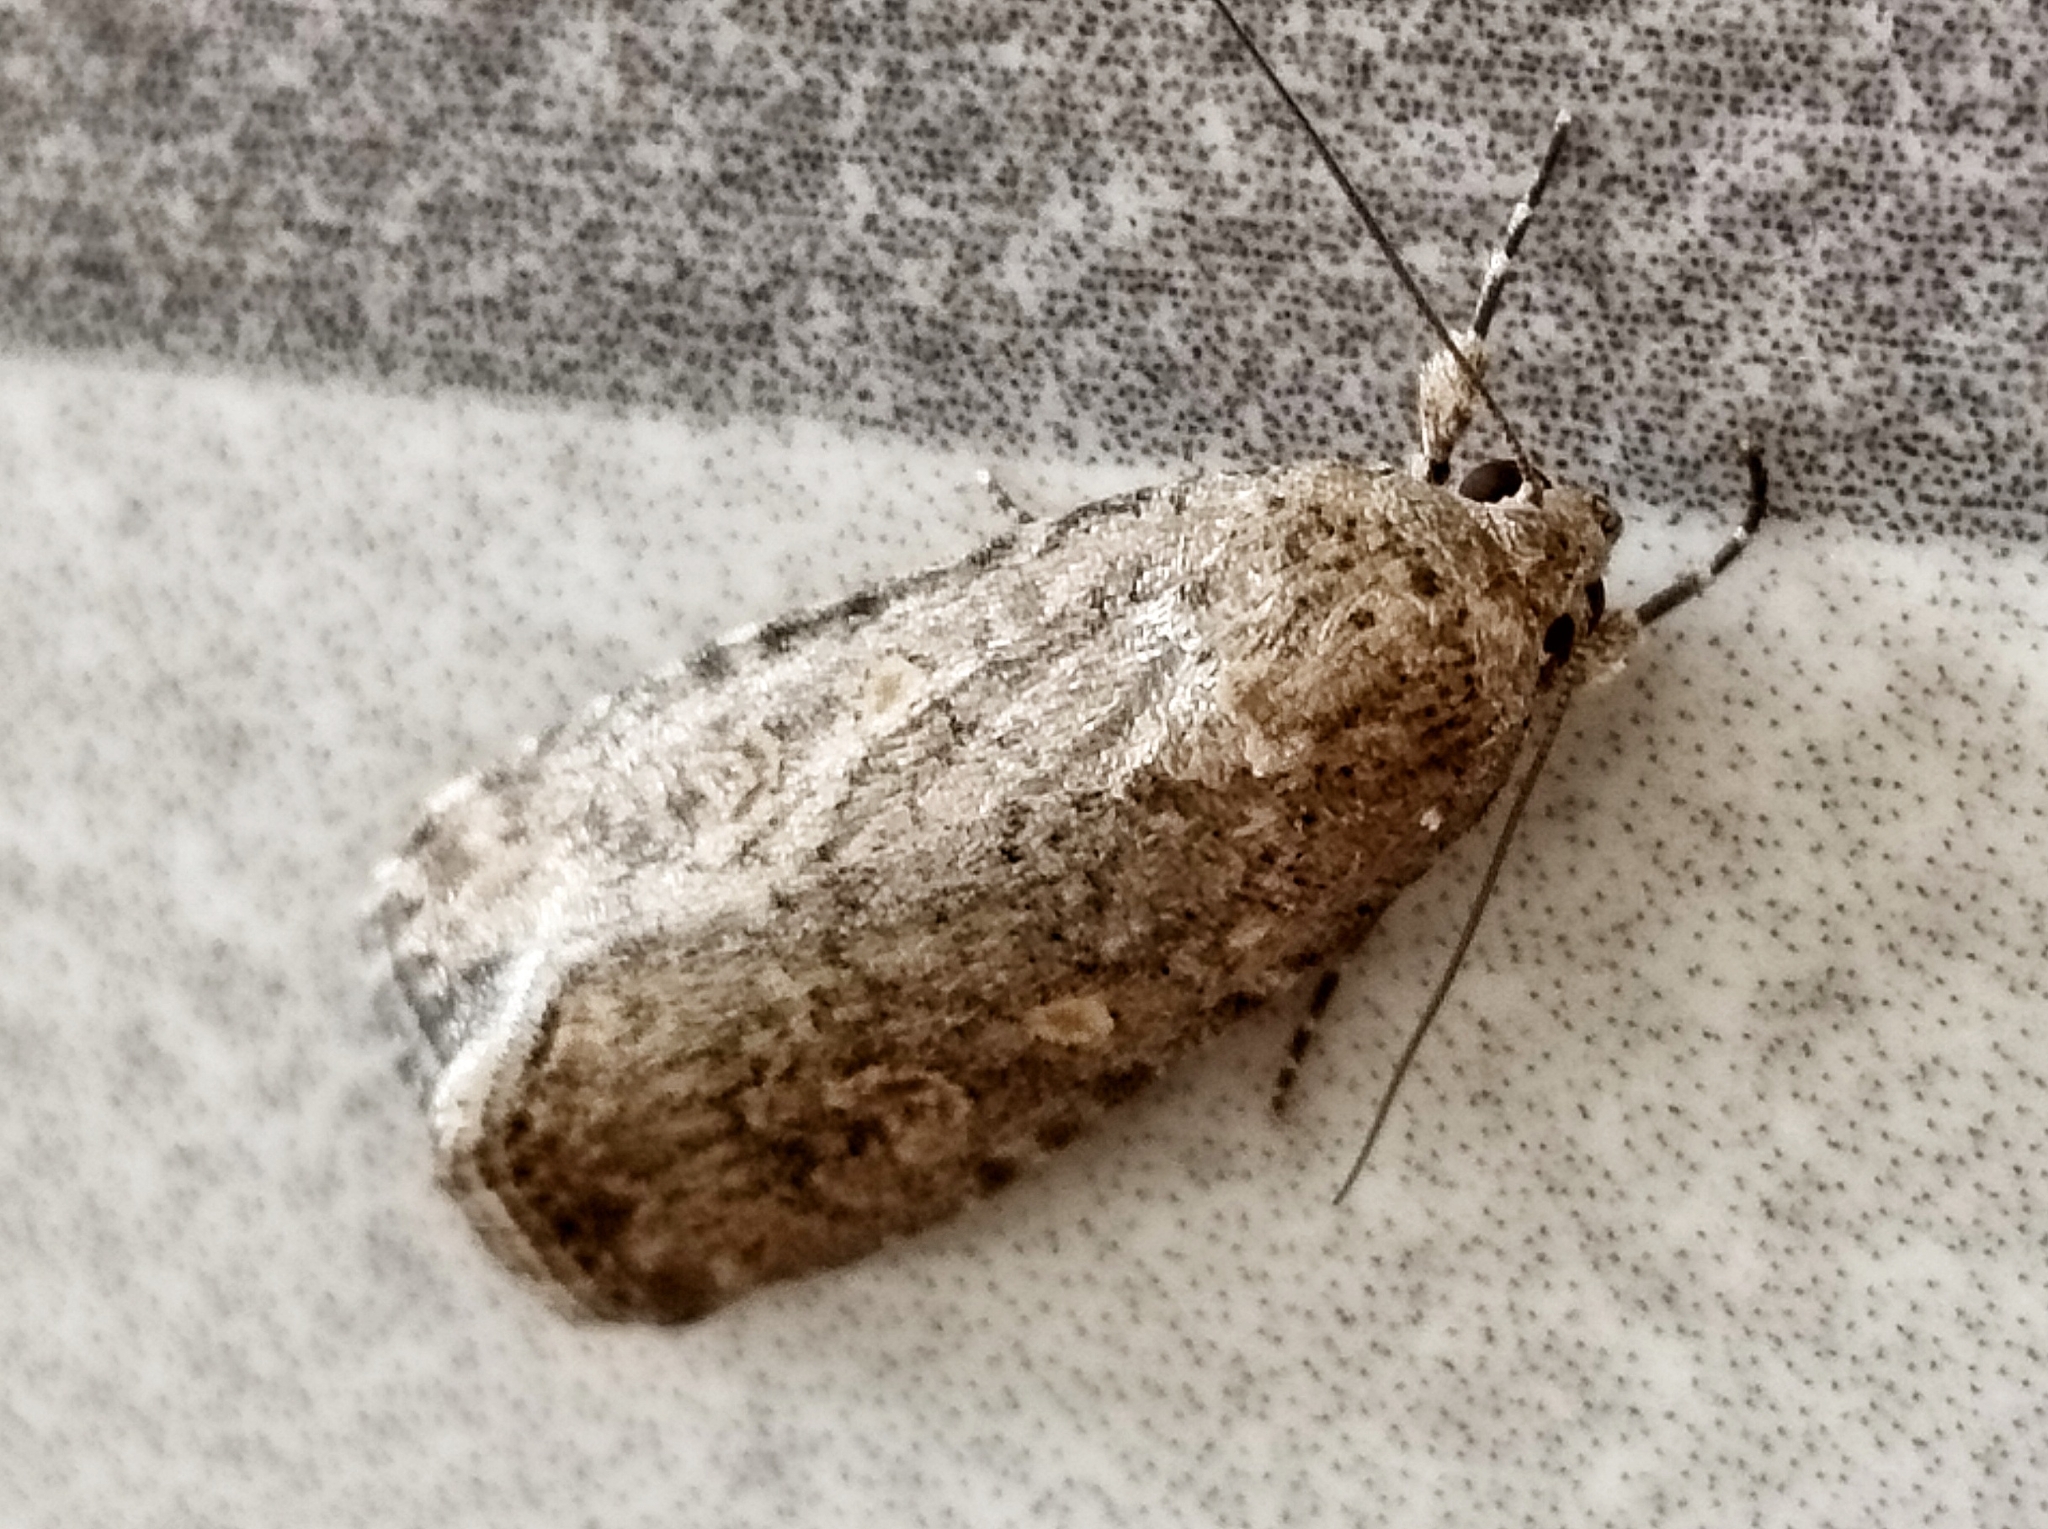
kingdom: Animalia
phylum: Arthropoda
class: Insecta
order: Lepidoptera
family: Noctuidae
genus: Spodoptera
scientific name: Spodoptera cilium
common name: Dark mottled willow
